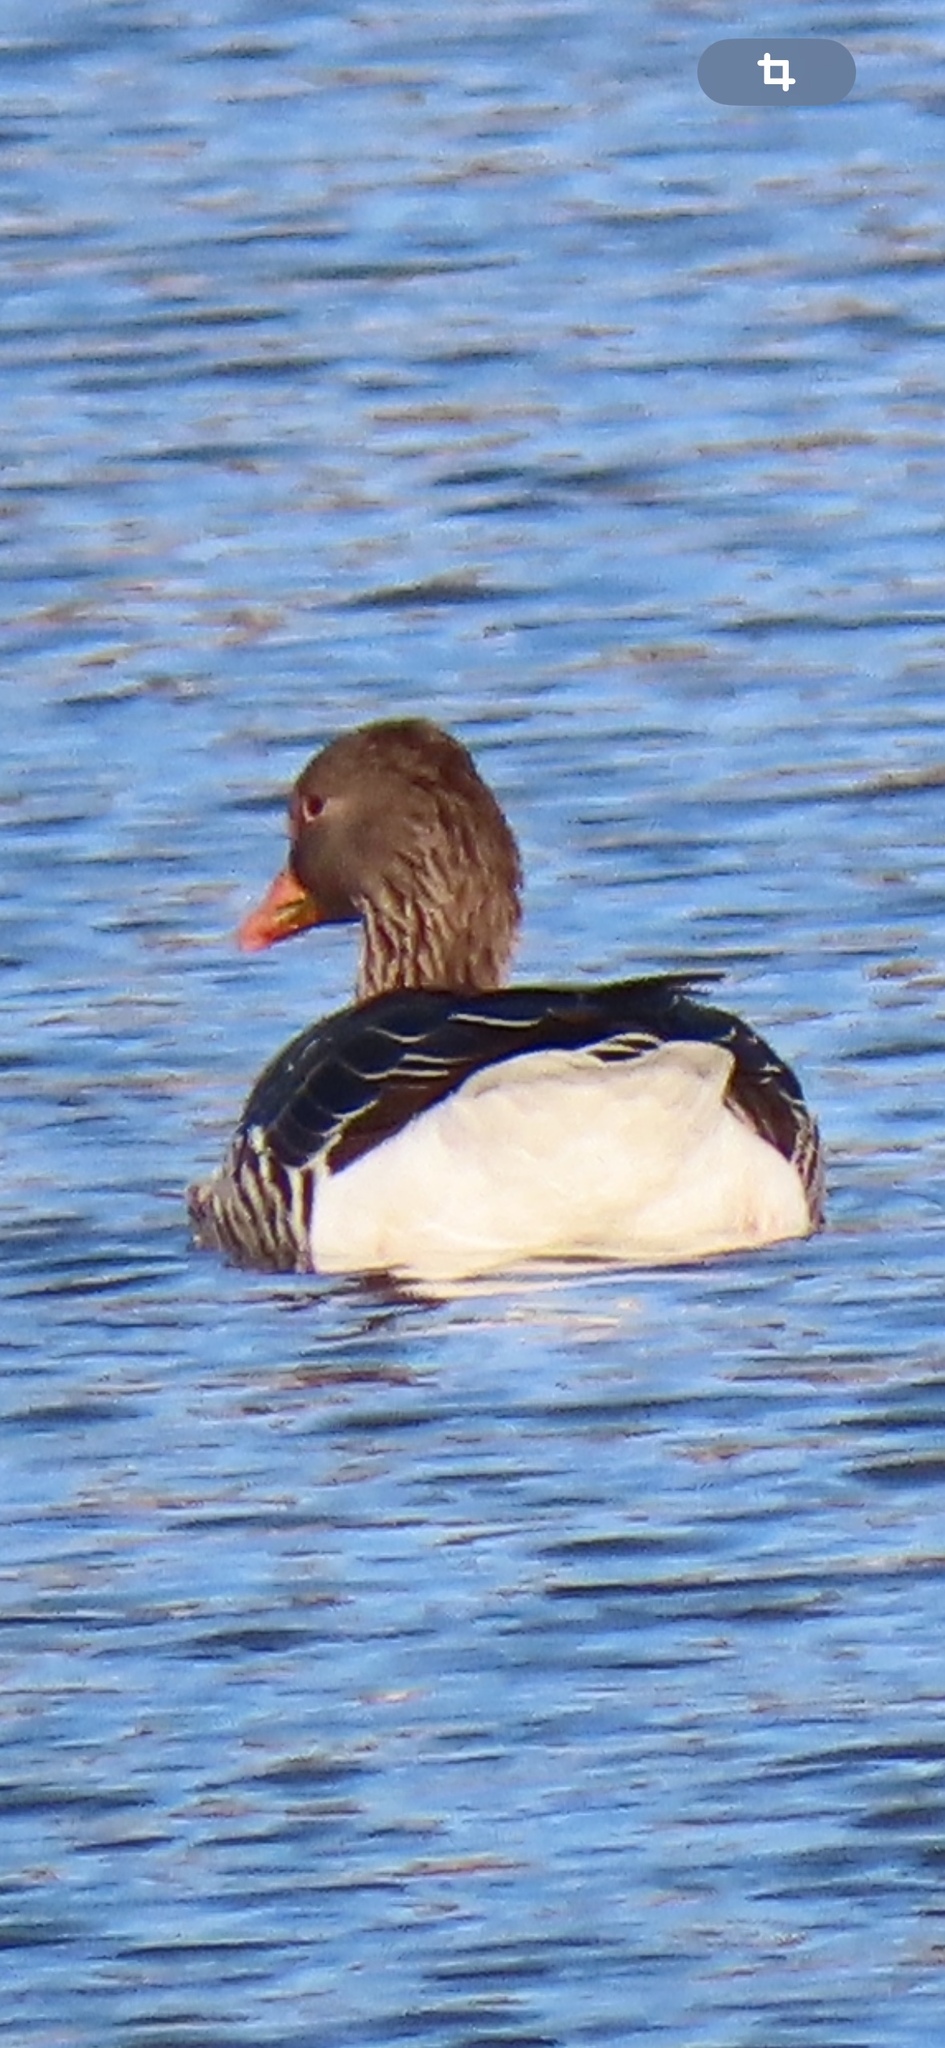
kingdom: Animalia
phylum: Chordata
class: Aves
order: Anseriformes
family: Anatidae
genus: Anser
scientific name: Anser anser
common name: Greylag goose
